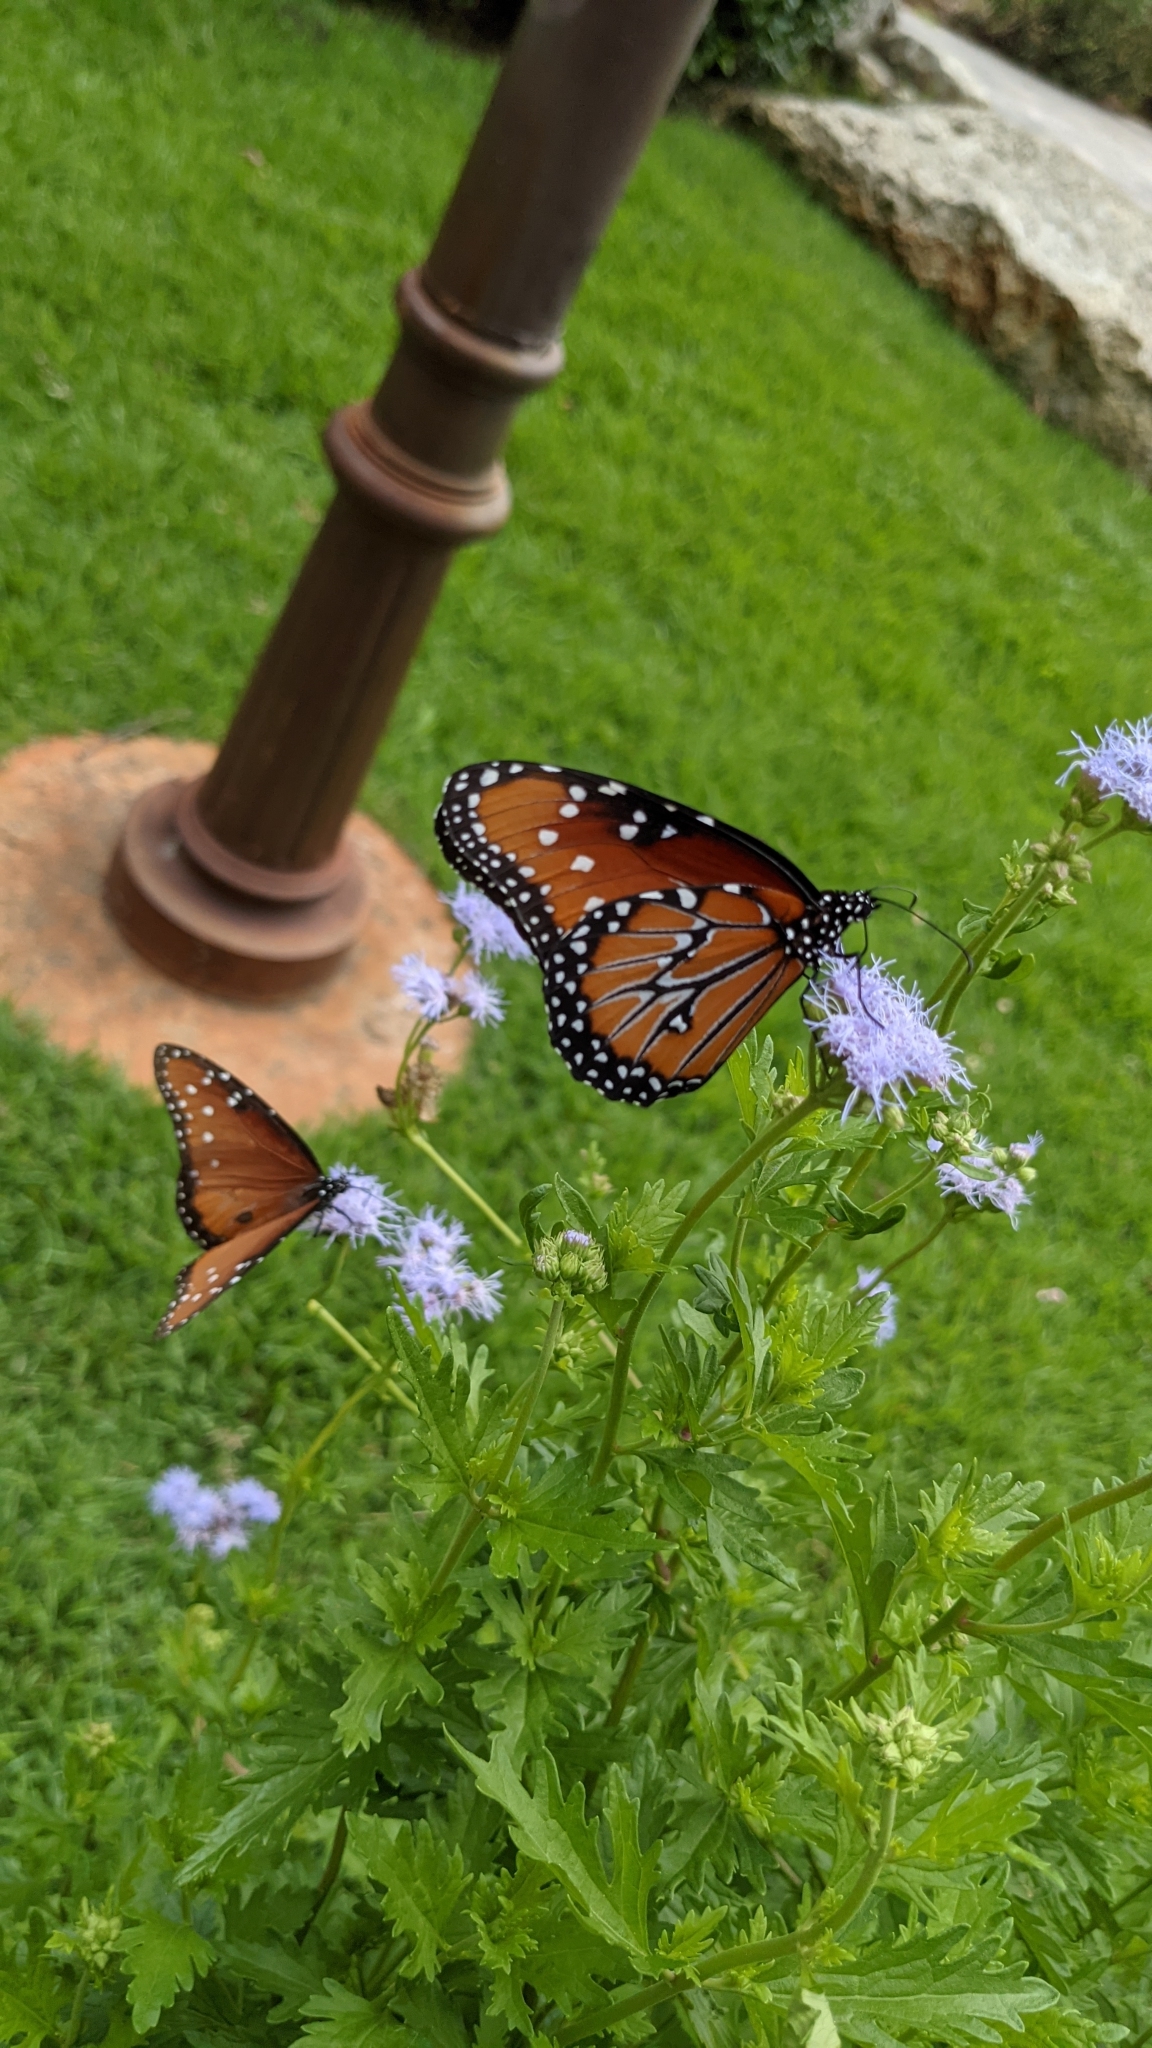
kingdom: Animalia
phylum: Arthropoda
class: Insecta
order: Lepidoptera
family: Nymphalidae
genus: Danaus
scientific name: Danaus gilippus
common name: Queen
